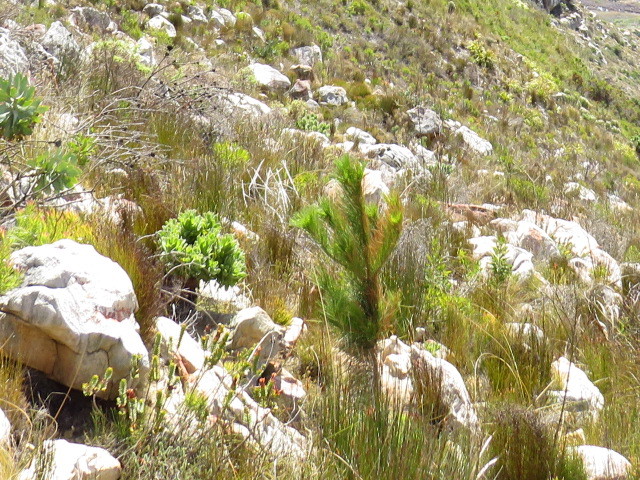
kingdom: Plantae
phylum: Tracheophyta
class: Pinopsida
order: Pinales
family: Pinaceae
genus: Pinus
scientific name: Pinus radiata
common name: Monterey pine
